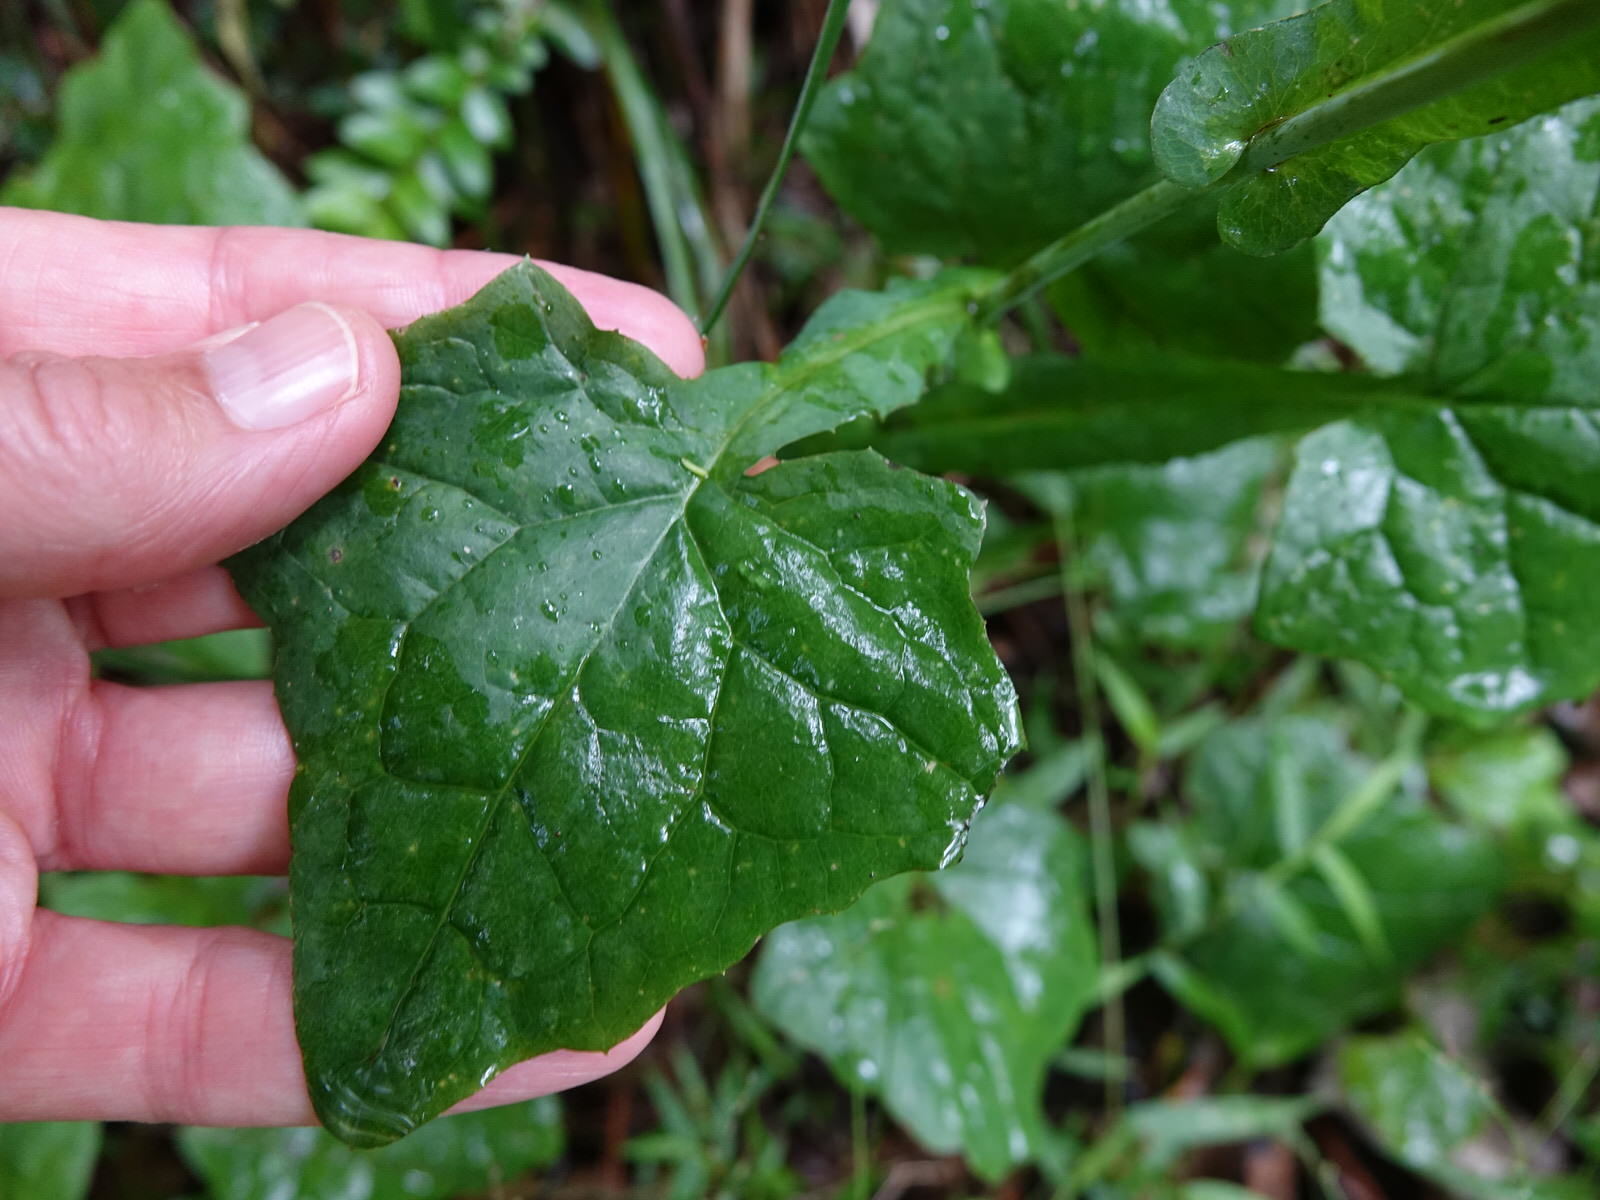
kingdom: Plantae
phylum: Tracheophyta
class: Magnoliopsida
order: Asterales
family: Asteraceae
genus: Mycelis
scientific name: Mycelis muralis
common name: Wall lettuce
